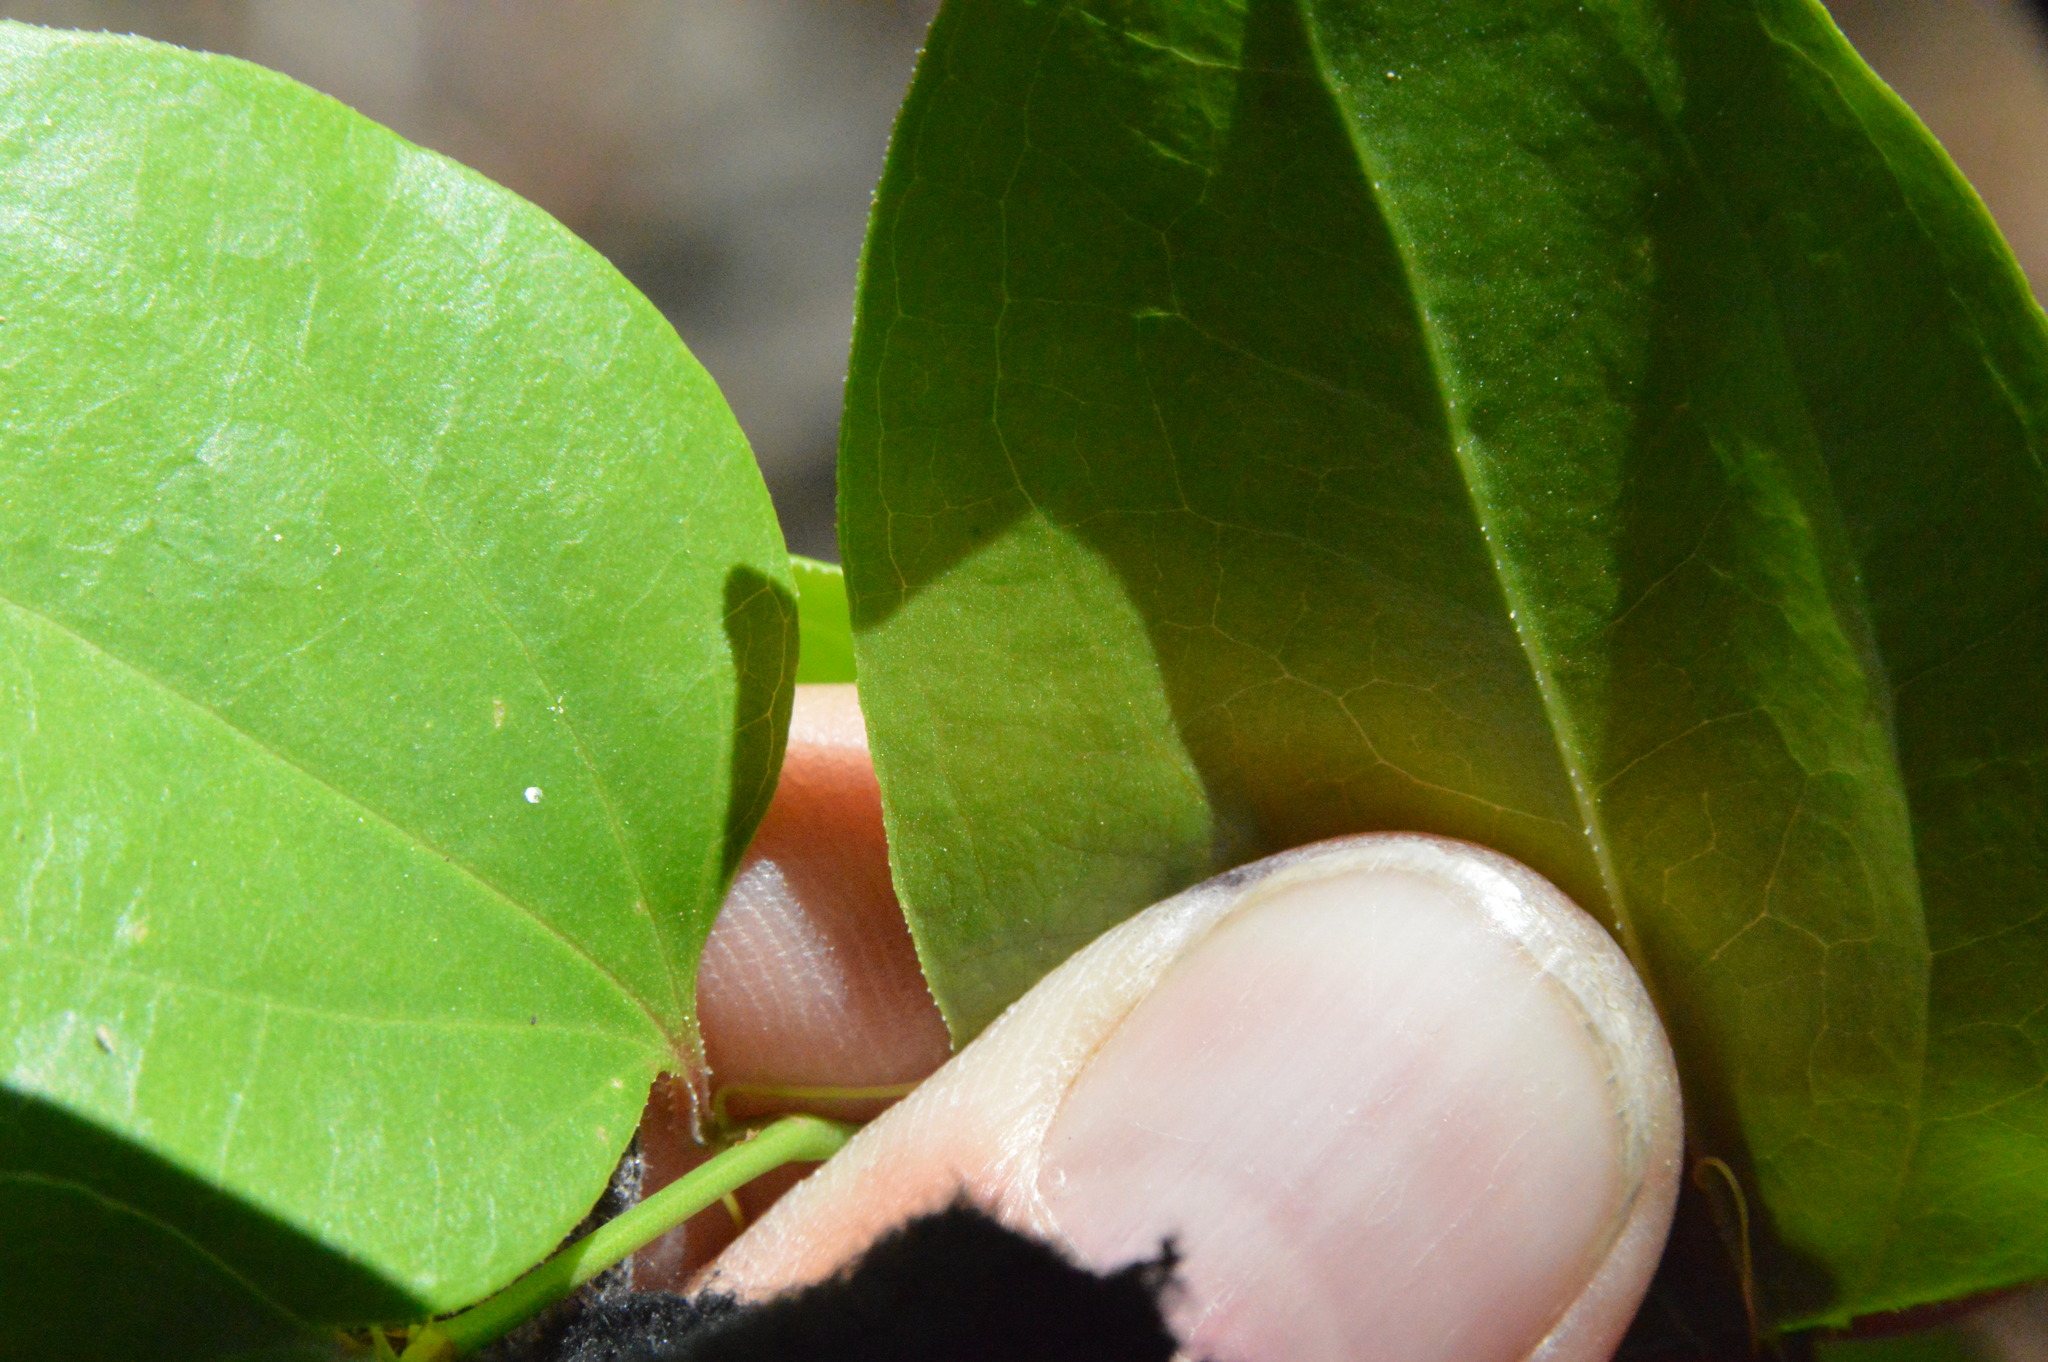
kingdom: Plantae
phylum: Tracheophyta
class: Liliopsida
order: Liliales
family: Smilacaceae
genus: Smilax
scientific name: Smilax rotundifolia
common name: Bullbriar
